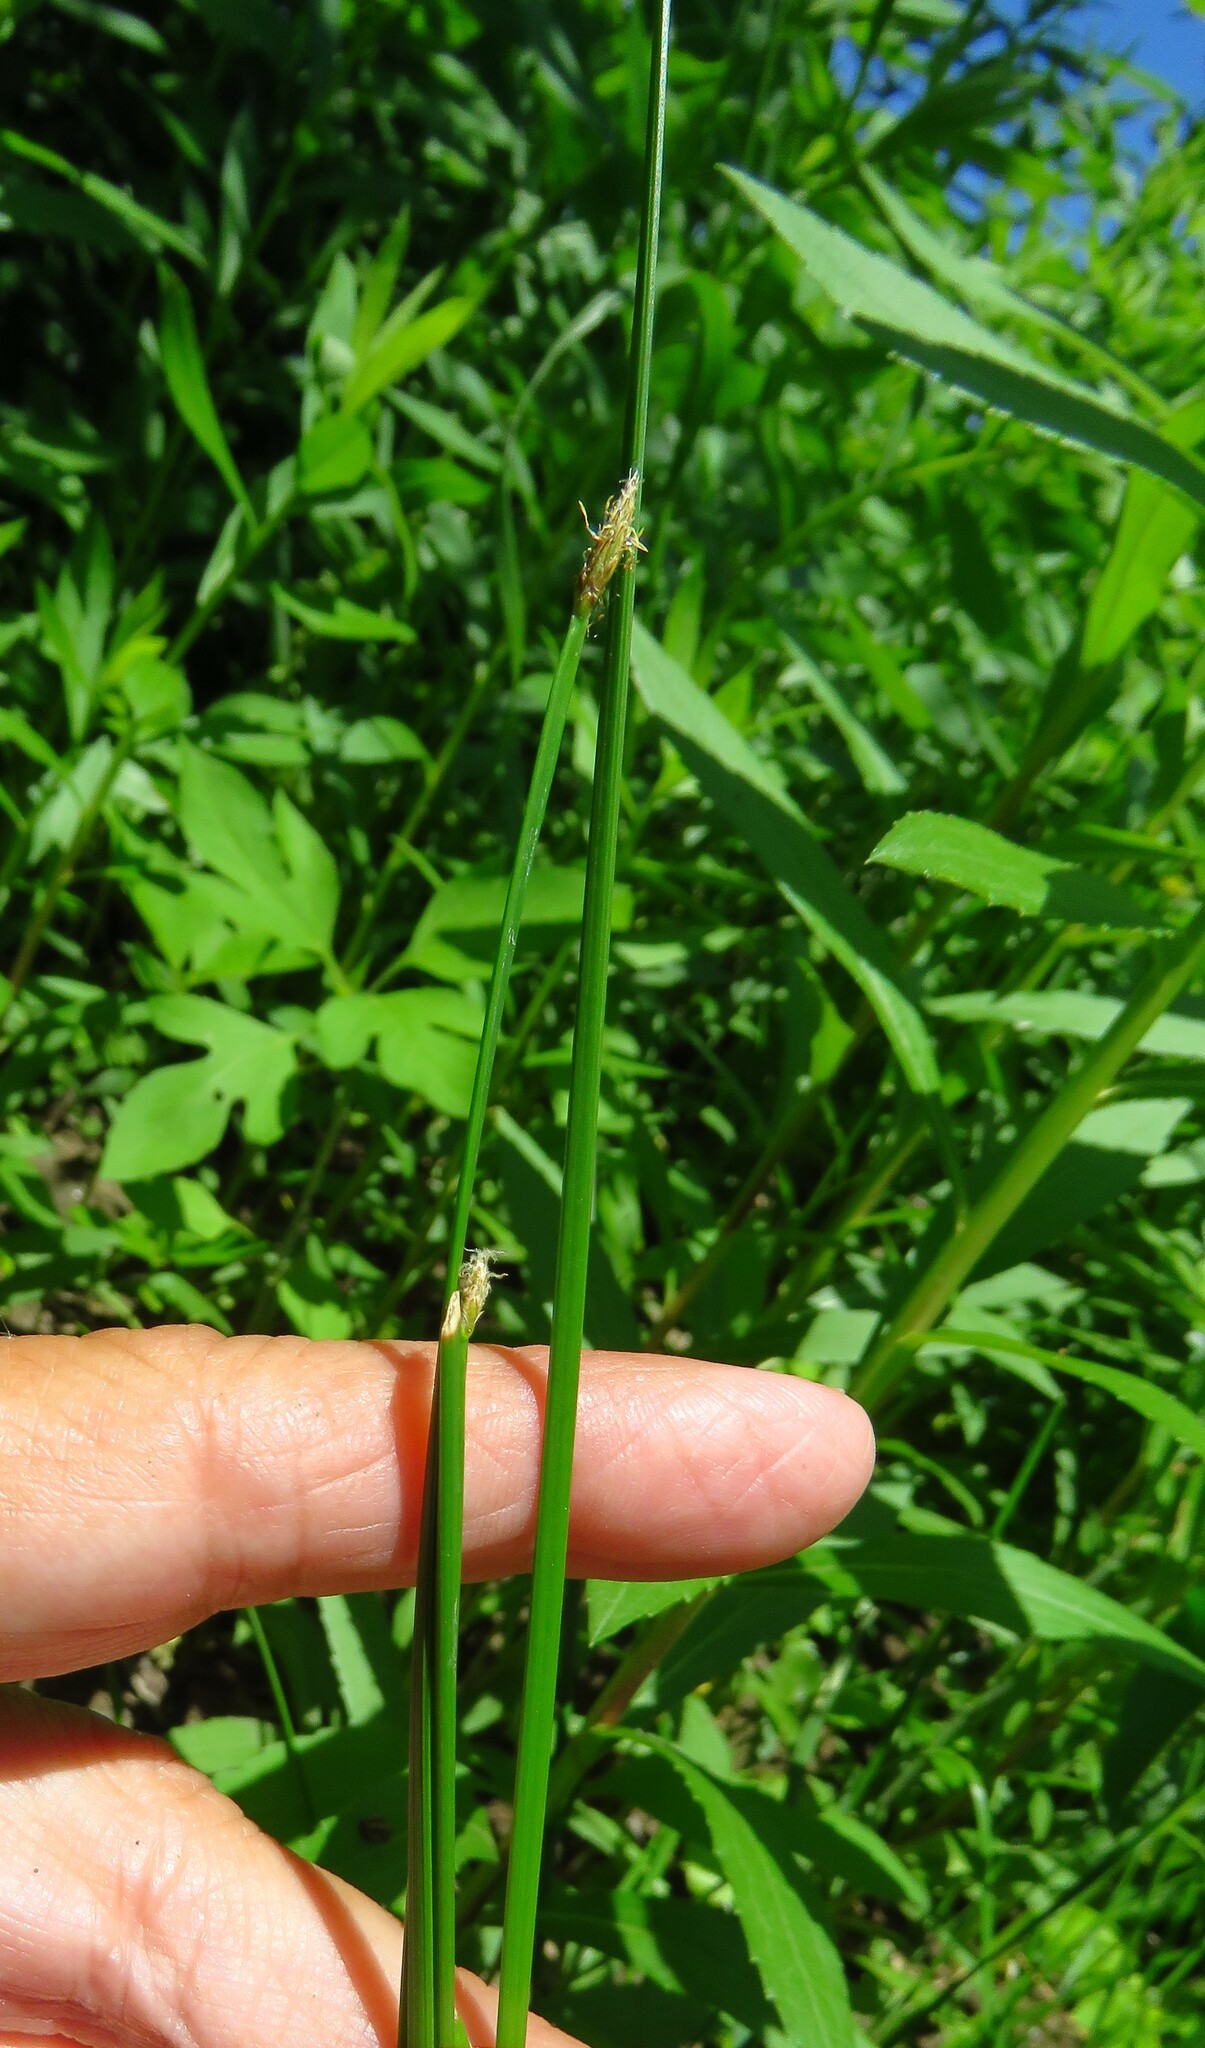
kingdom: Plantae
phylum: Tracheophyta
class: Liliopsida
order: Poales
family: Cyperaceae
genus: Eleocharis
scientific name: Eleocharis palustris
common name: Common spike-rush
